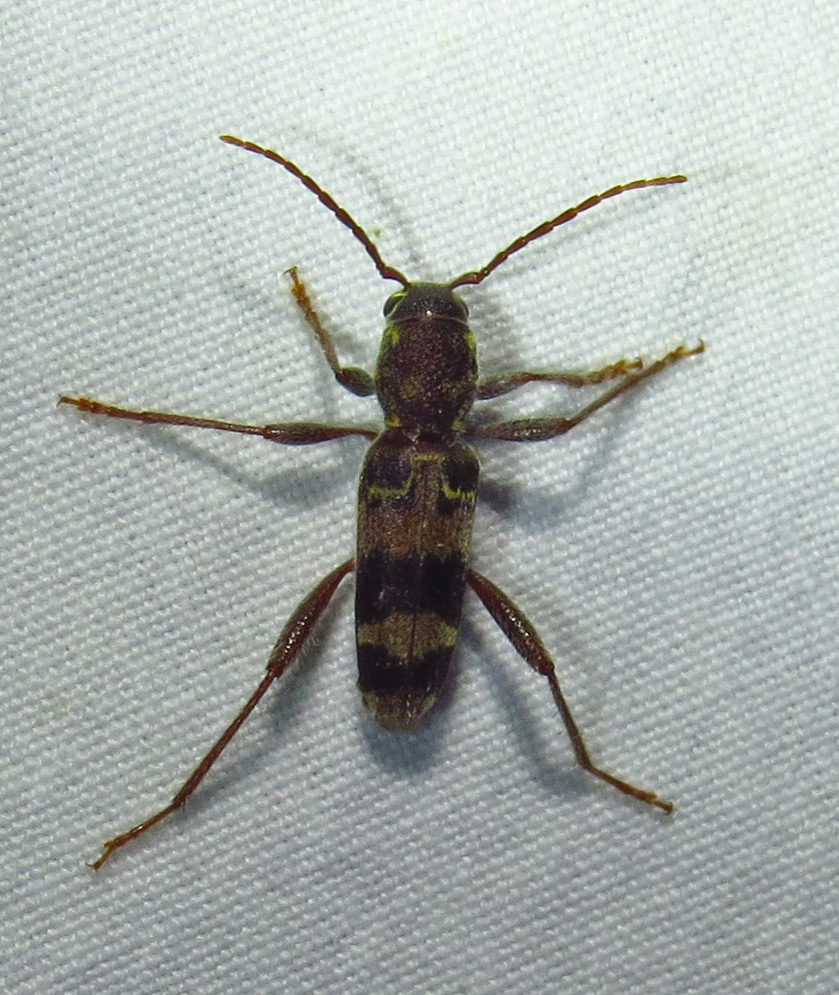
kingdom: Animalia
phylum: Arthropoda
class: Insecta
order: Coleoptera
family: Cerambycidae
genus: Xylotrechus
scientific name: Xylotrechus colonus
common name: Long-horned beetle
